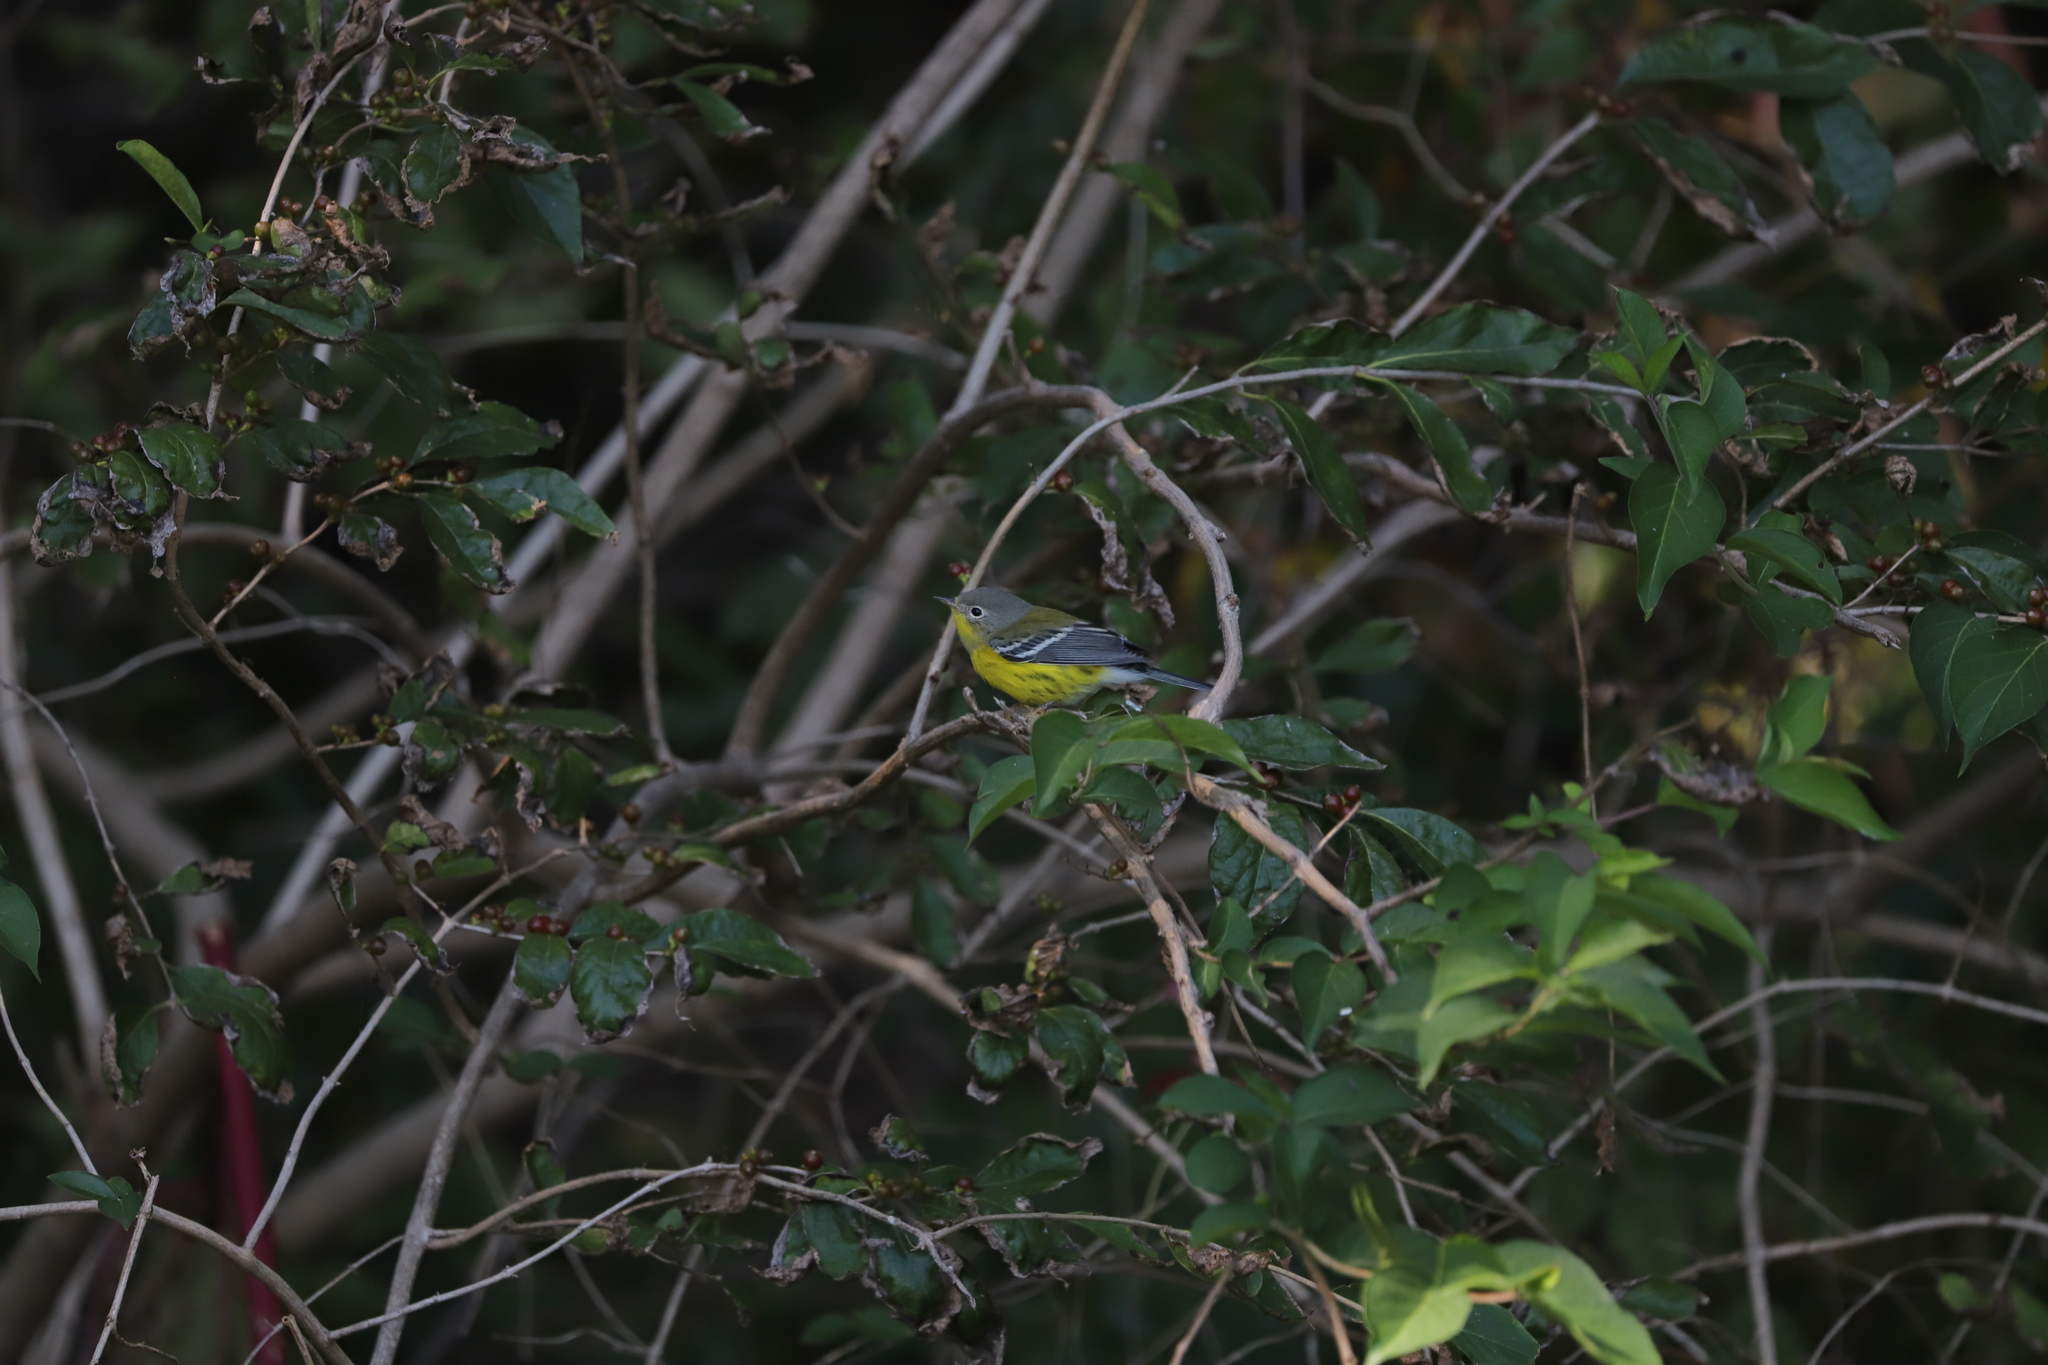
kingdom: Animalia
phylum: Chordata
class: Aves
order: Passeriformes
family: Parulidae
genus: Setophaga
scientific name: Setophaga magnolia
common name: Magnolia warbler
